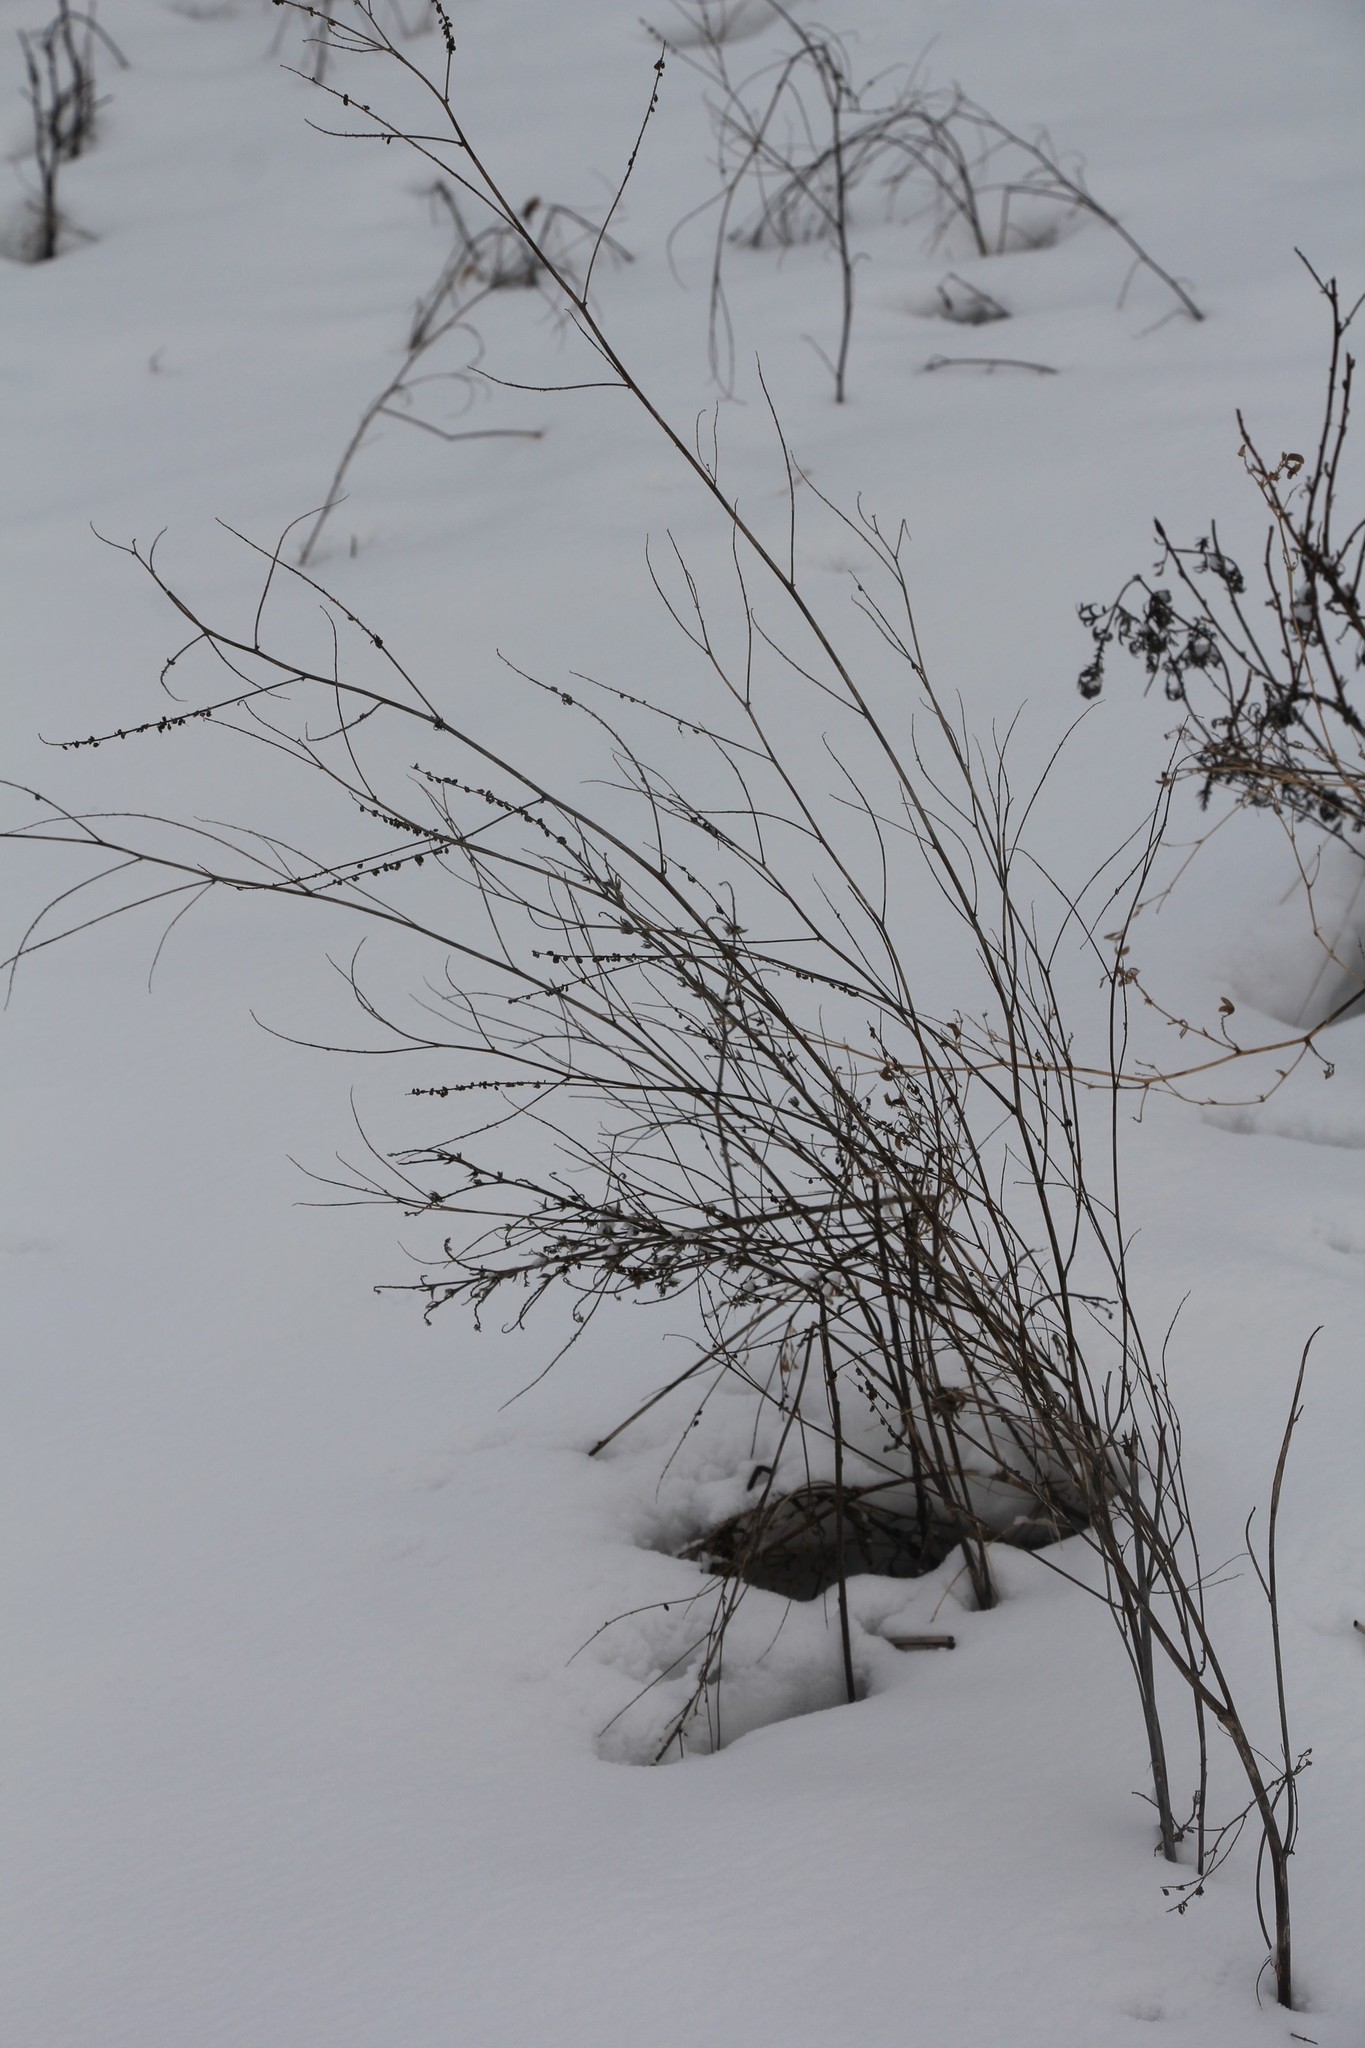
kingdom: Plantae
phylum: Tracheophyta
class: Magnoliopsida
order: Fabales
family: Fabaceae
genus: Melilotus
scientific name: Melilotus albus
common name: White melilot
